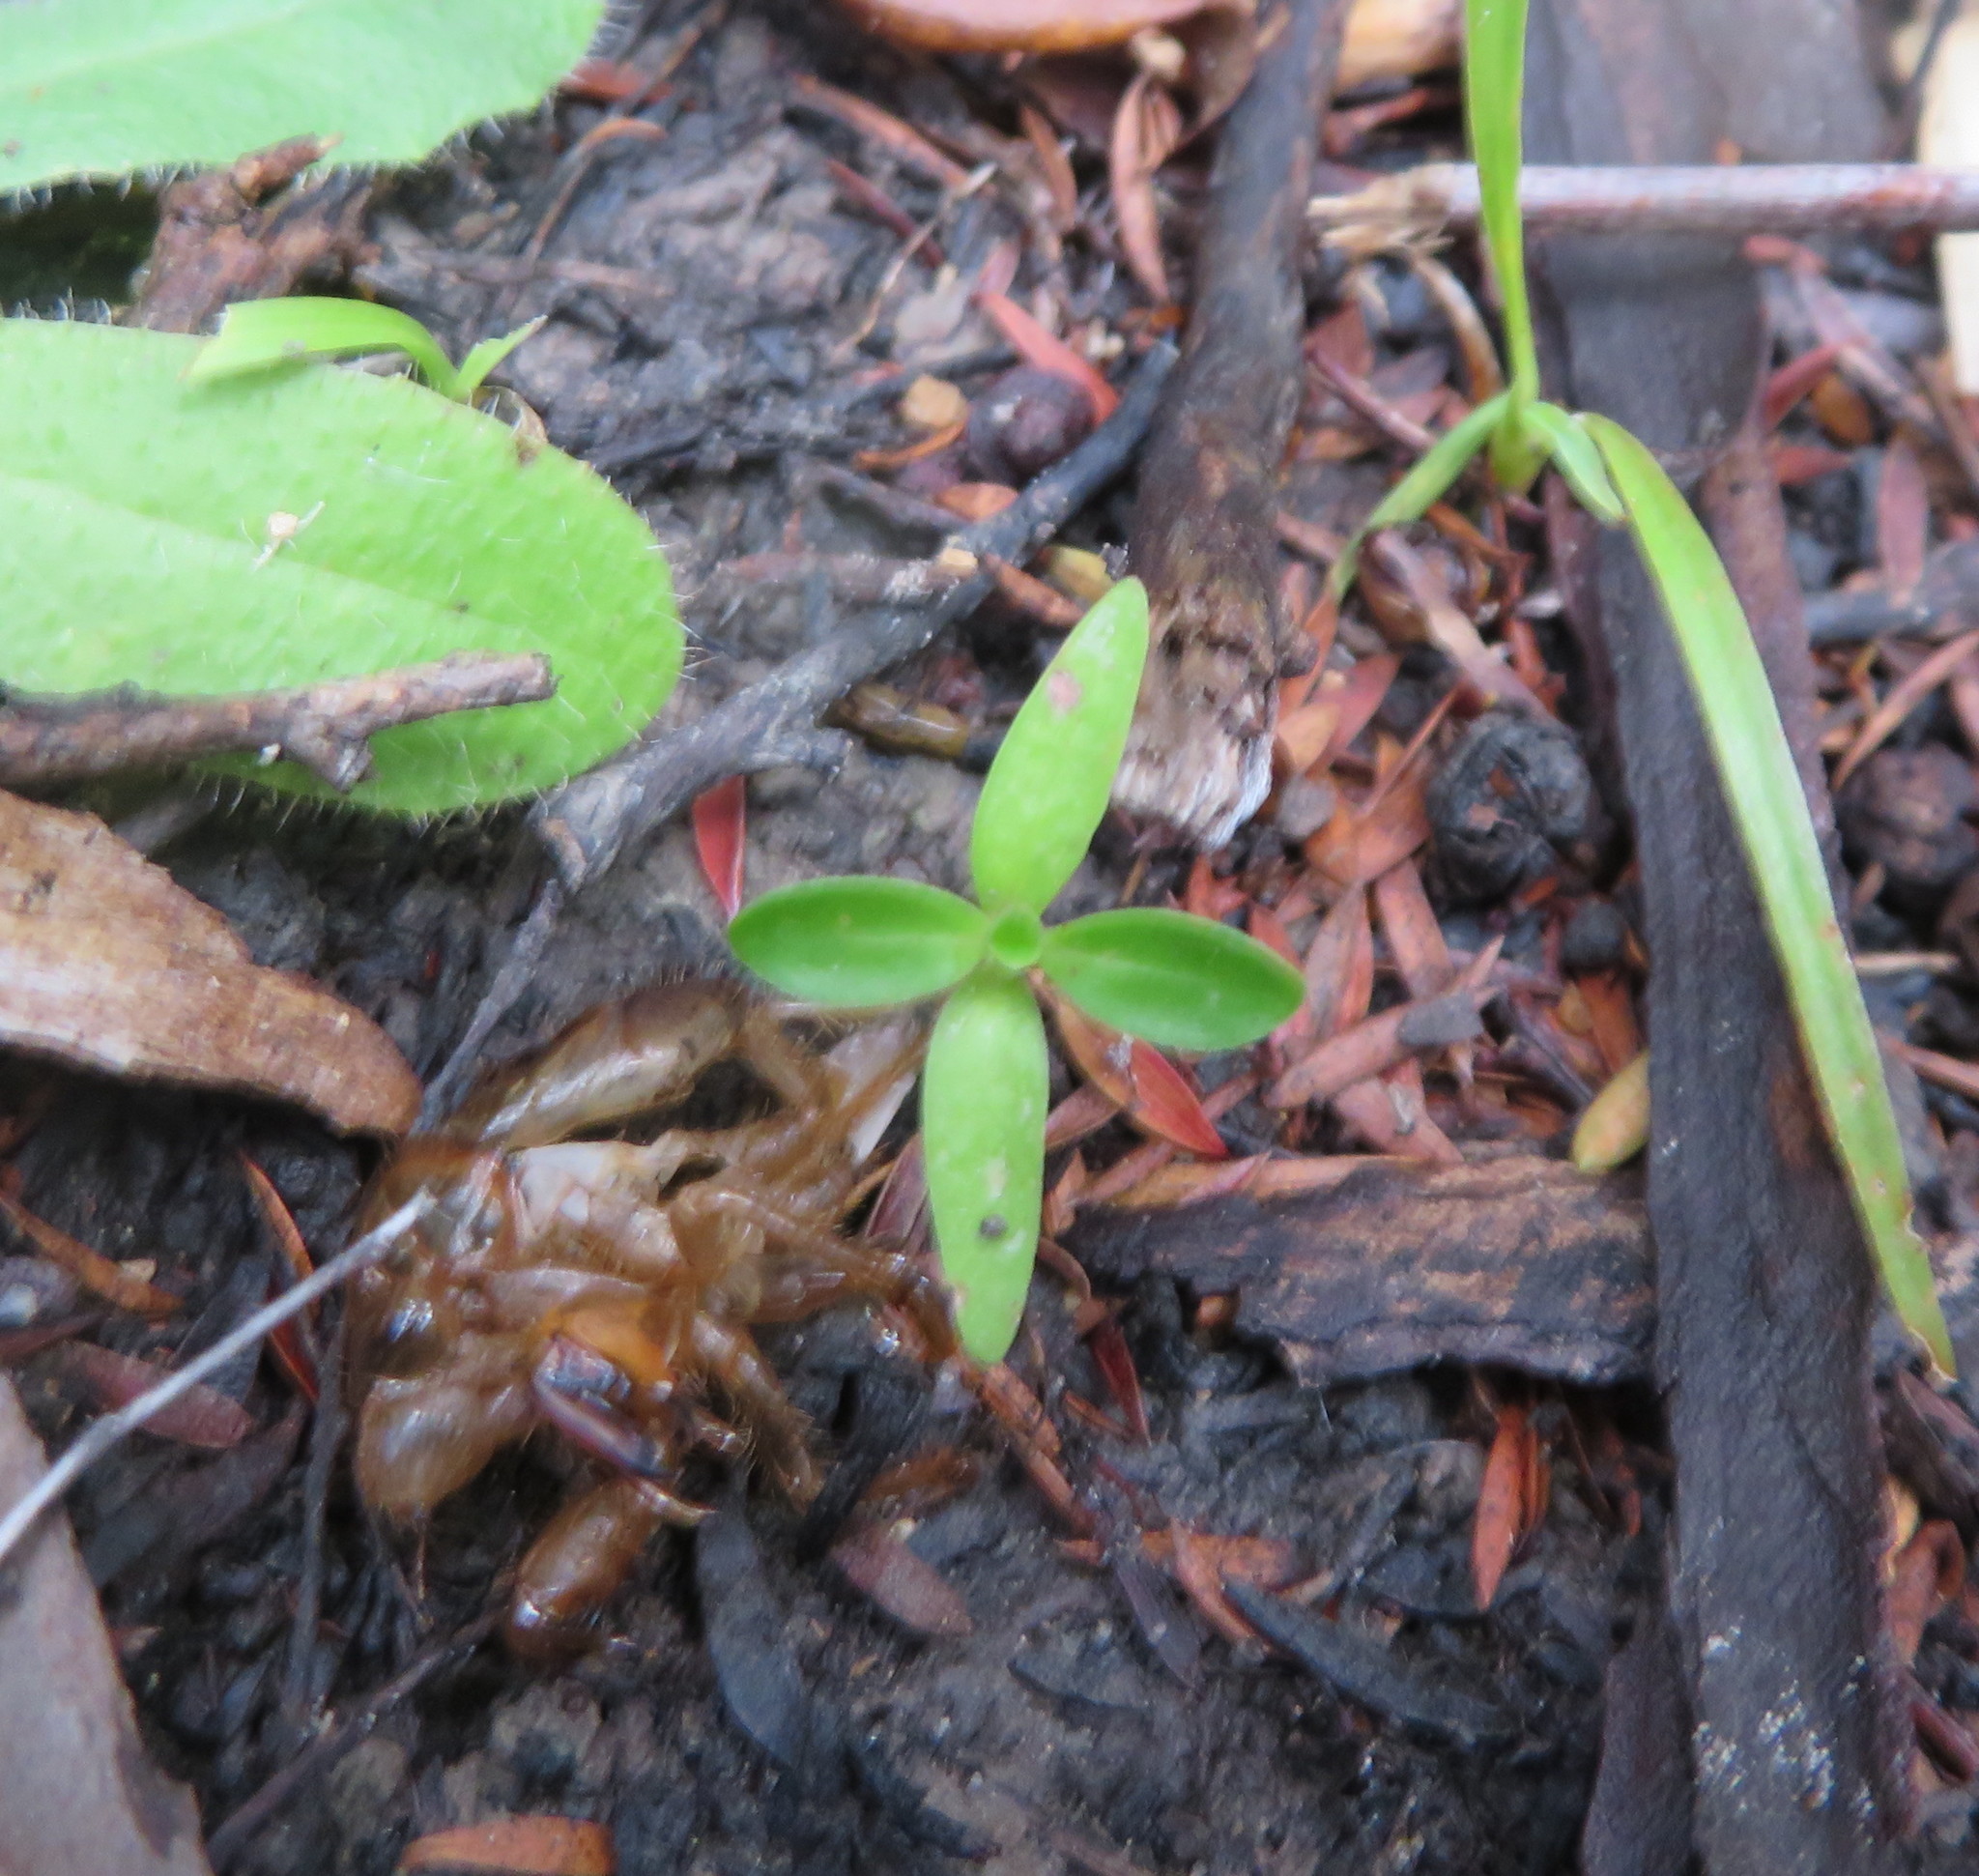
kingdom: Plantae
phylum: Tracheophyta
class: Magnoliopsida
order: Gentianales
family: Rubiaceae
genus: Coprosma
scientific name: Coprosma robusta
